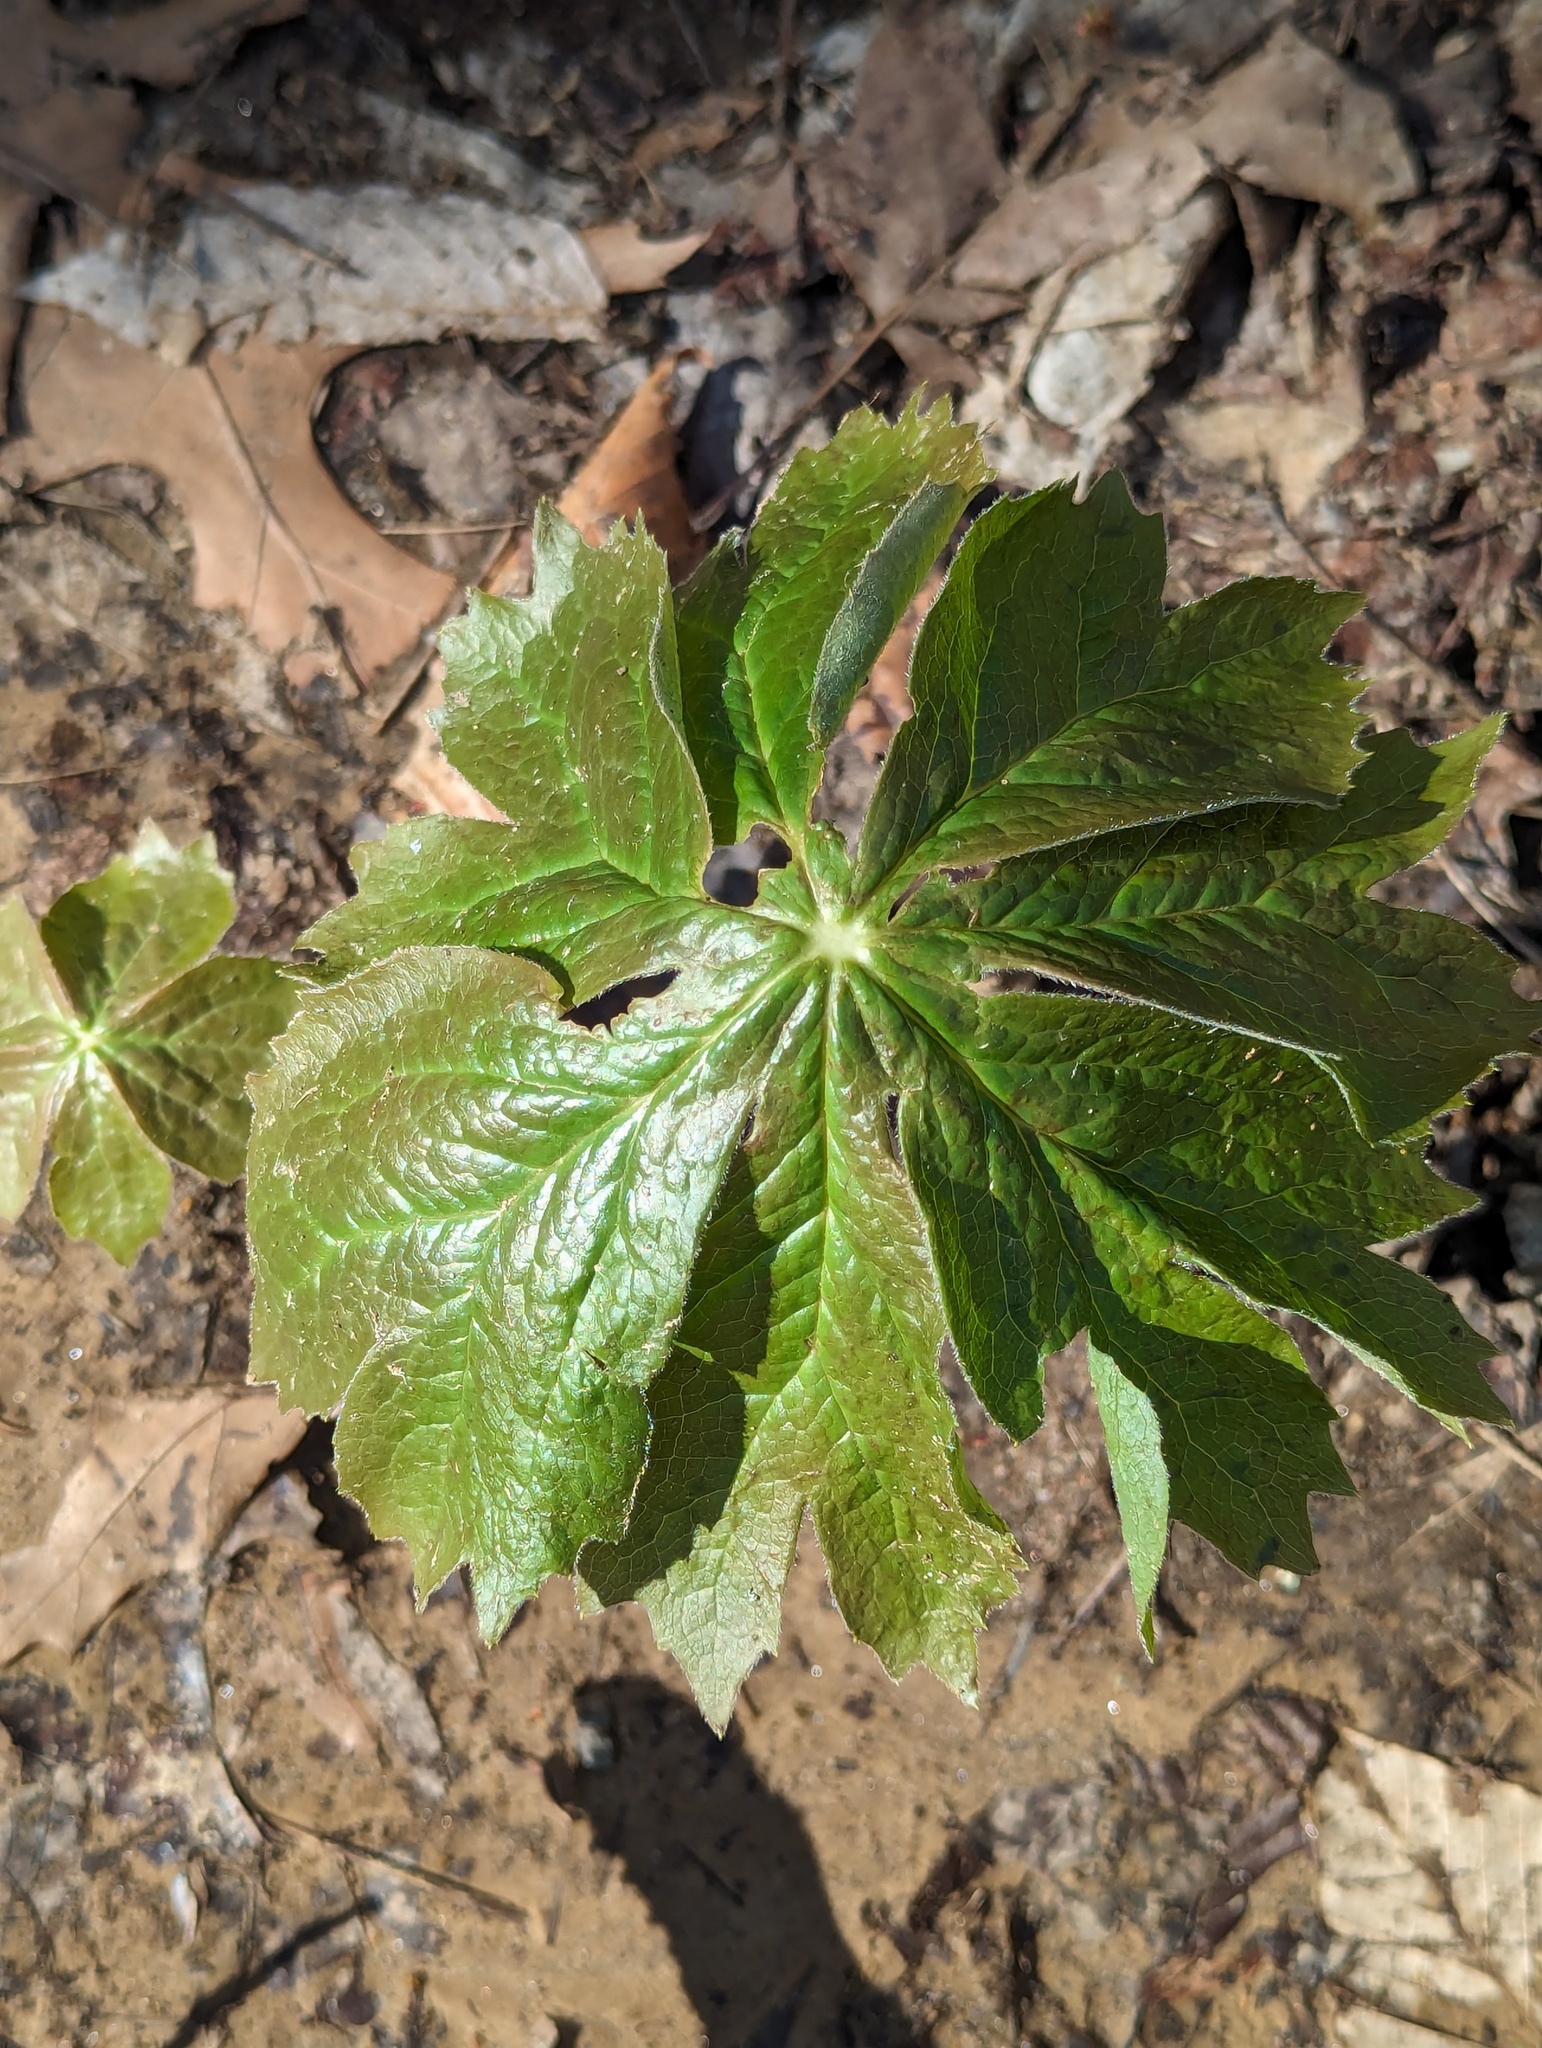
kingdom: Plantae
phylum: Tracheophyta
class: Magnoliopsida
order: Ranunculales
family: Berberidaceae
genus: Podophyllum
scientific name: Podophyllum peltatum
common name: Wild mandrake
